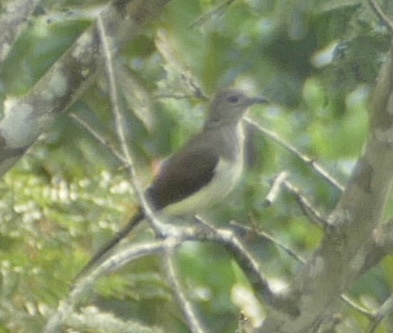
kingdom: Animalia
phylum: Chordata
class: Aves
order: Passeriformes
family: Pycnonotidae
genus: Thescelocichla
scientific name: Thescelocichla leucopleura
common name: Swamp palm bulbul
